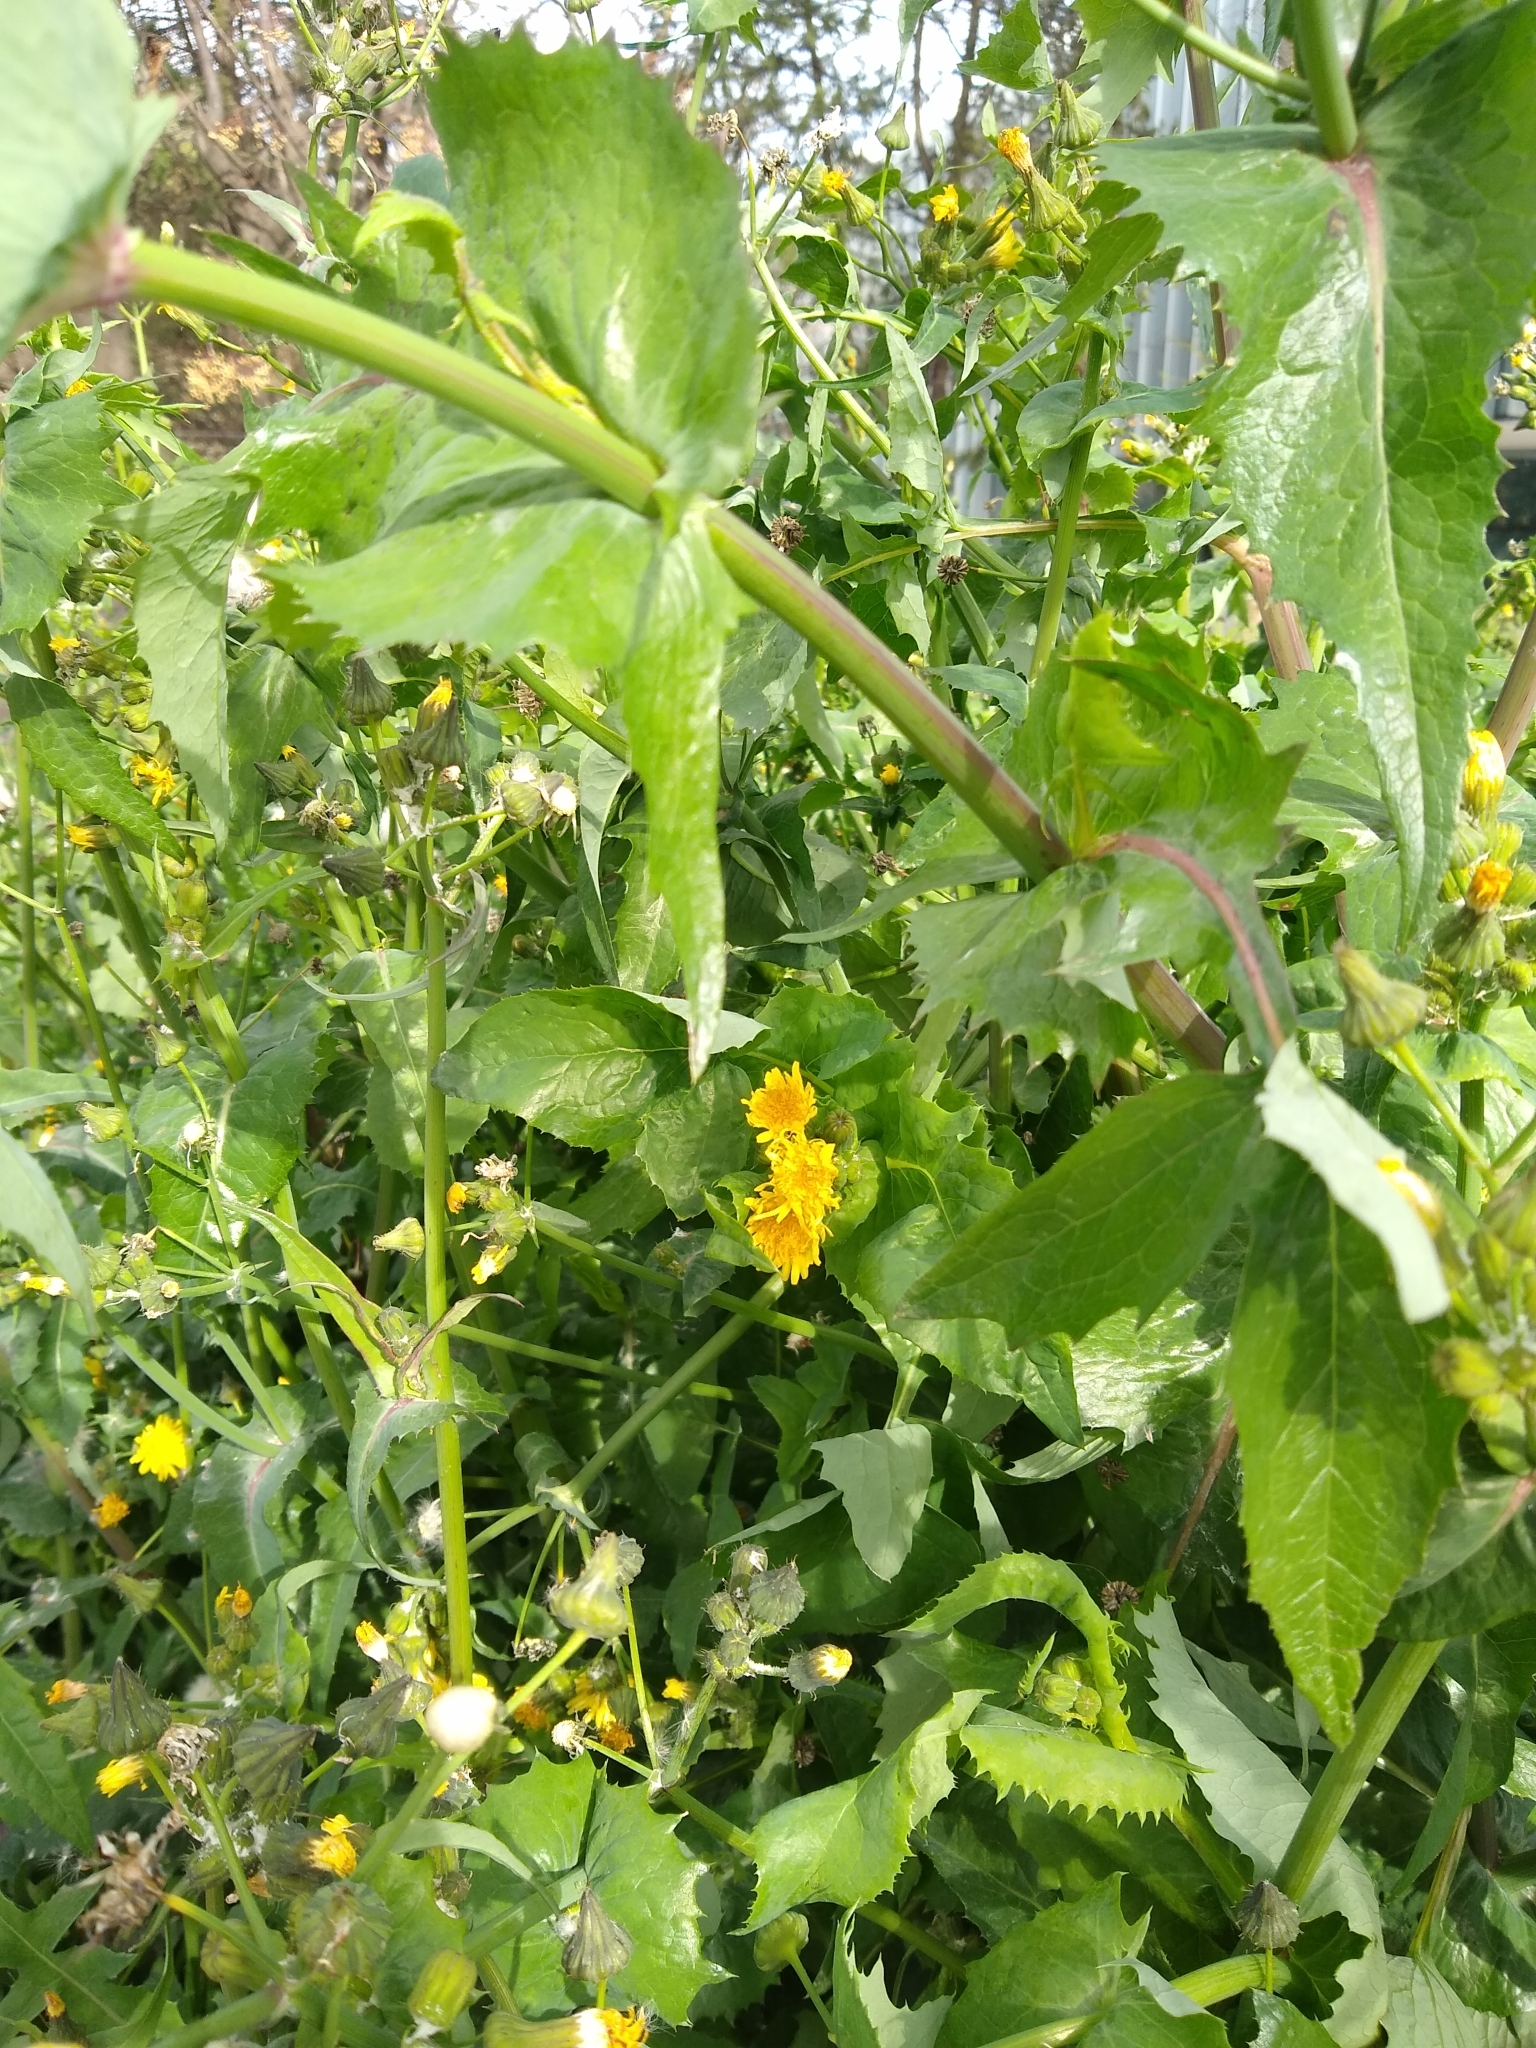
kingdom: Plantae
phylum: Tracheophyta
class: Magnoliopsida
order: Asterales
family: Asteraceae
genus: Sonchus
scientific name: Sonchus oleraceus
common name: Common sowthistle
